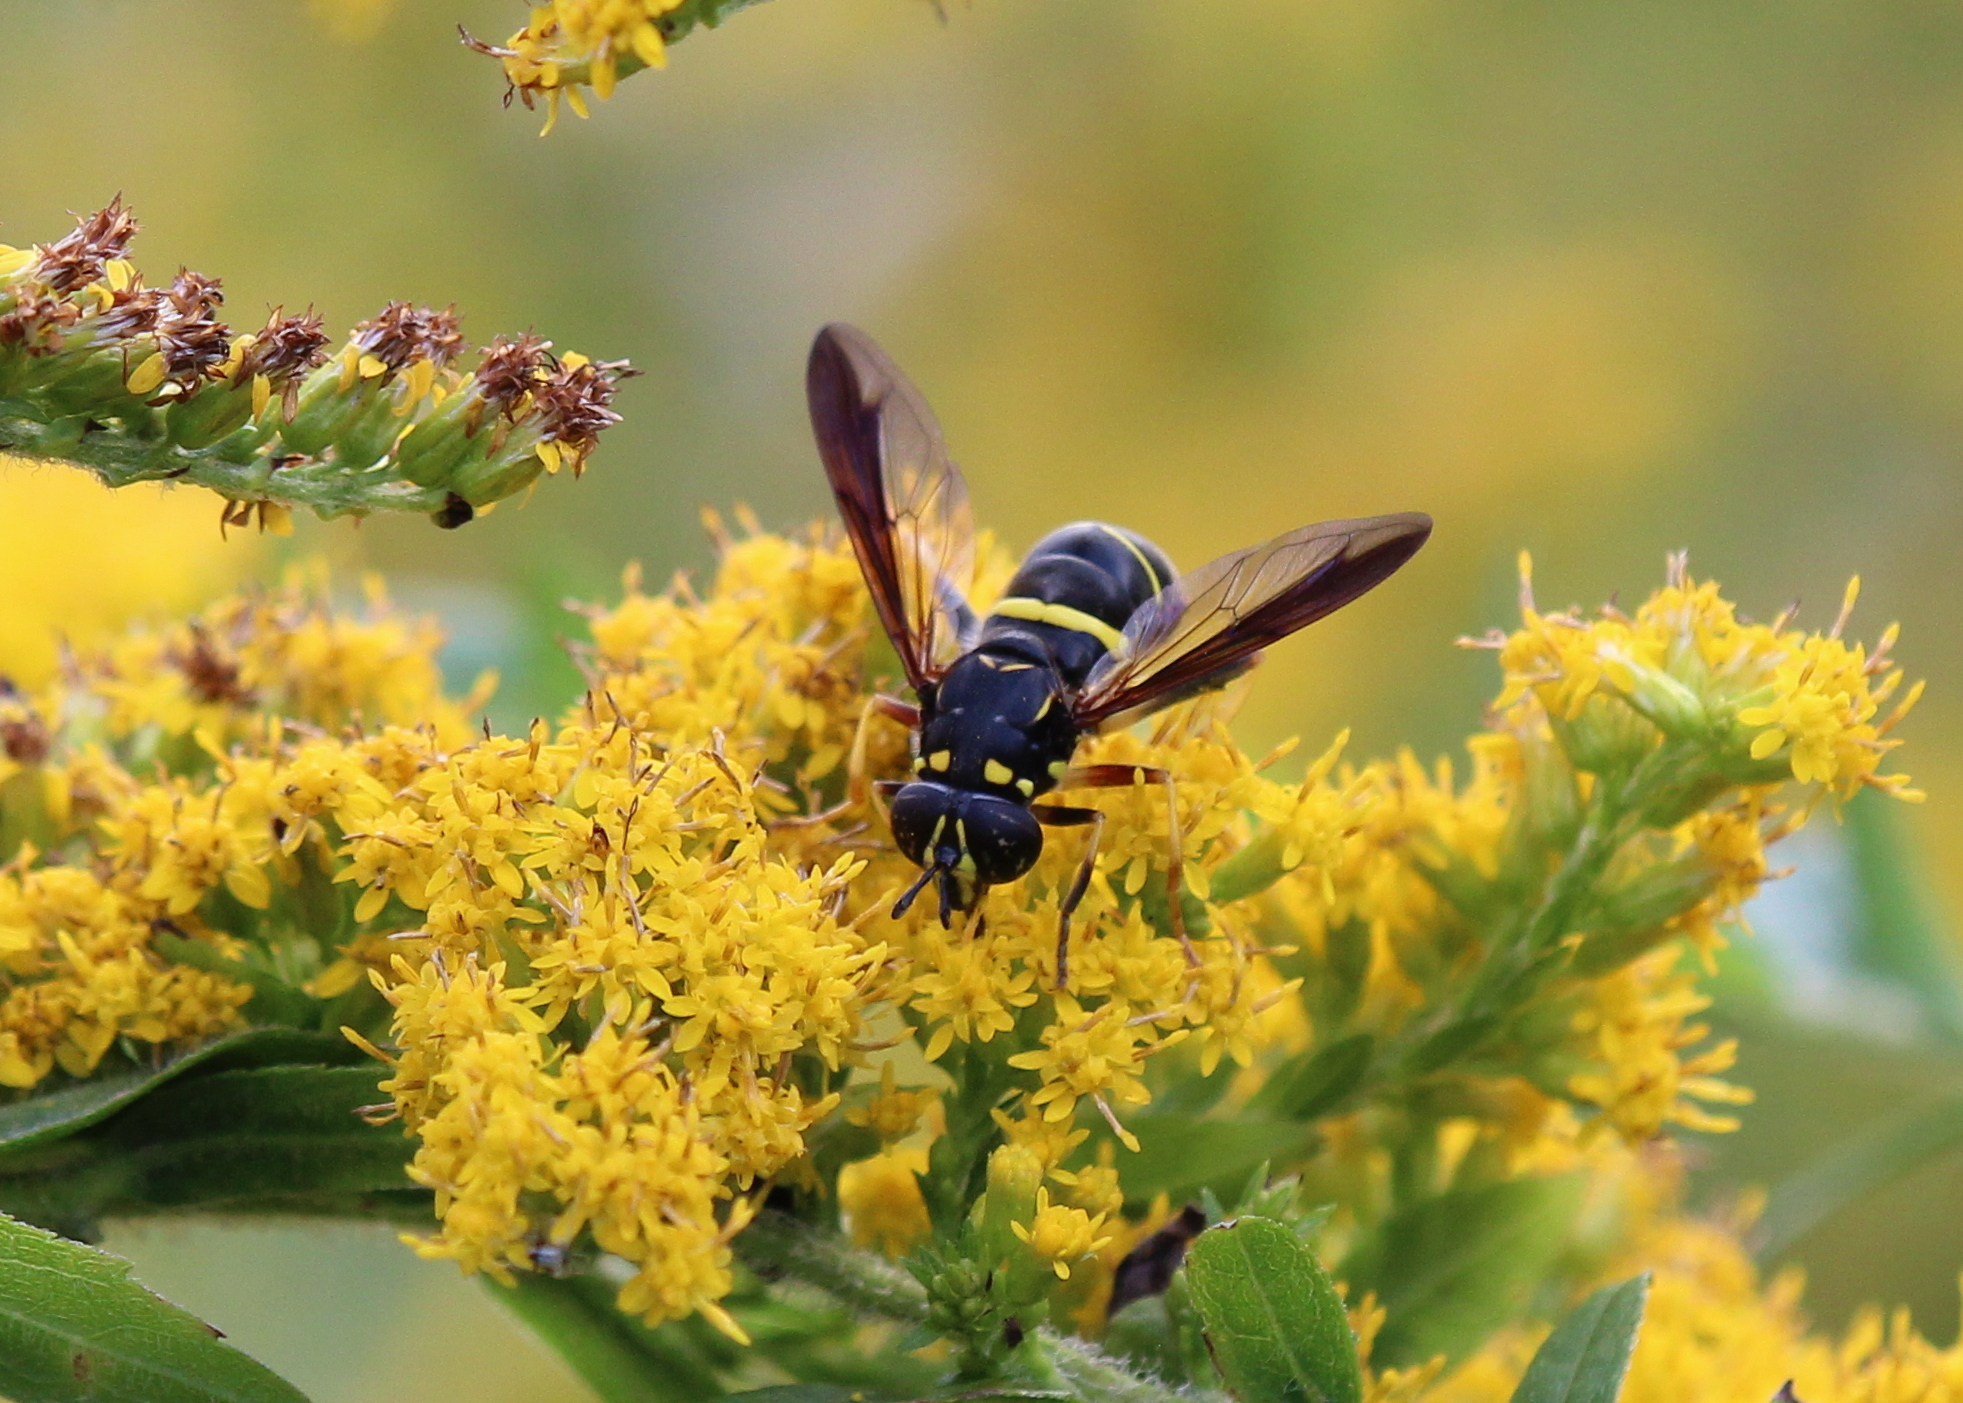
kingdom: Animalia
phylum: Arthropoda
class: Insecta
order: Diptera
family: Syrphidae
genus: Spilomyia
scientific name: Spilomyia sayi
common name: Four-lined hornet fly
